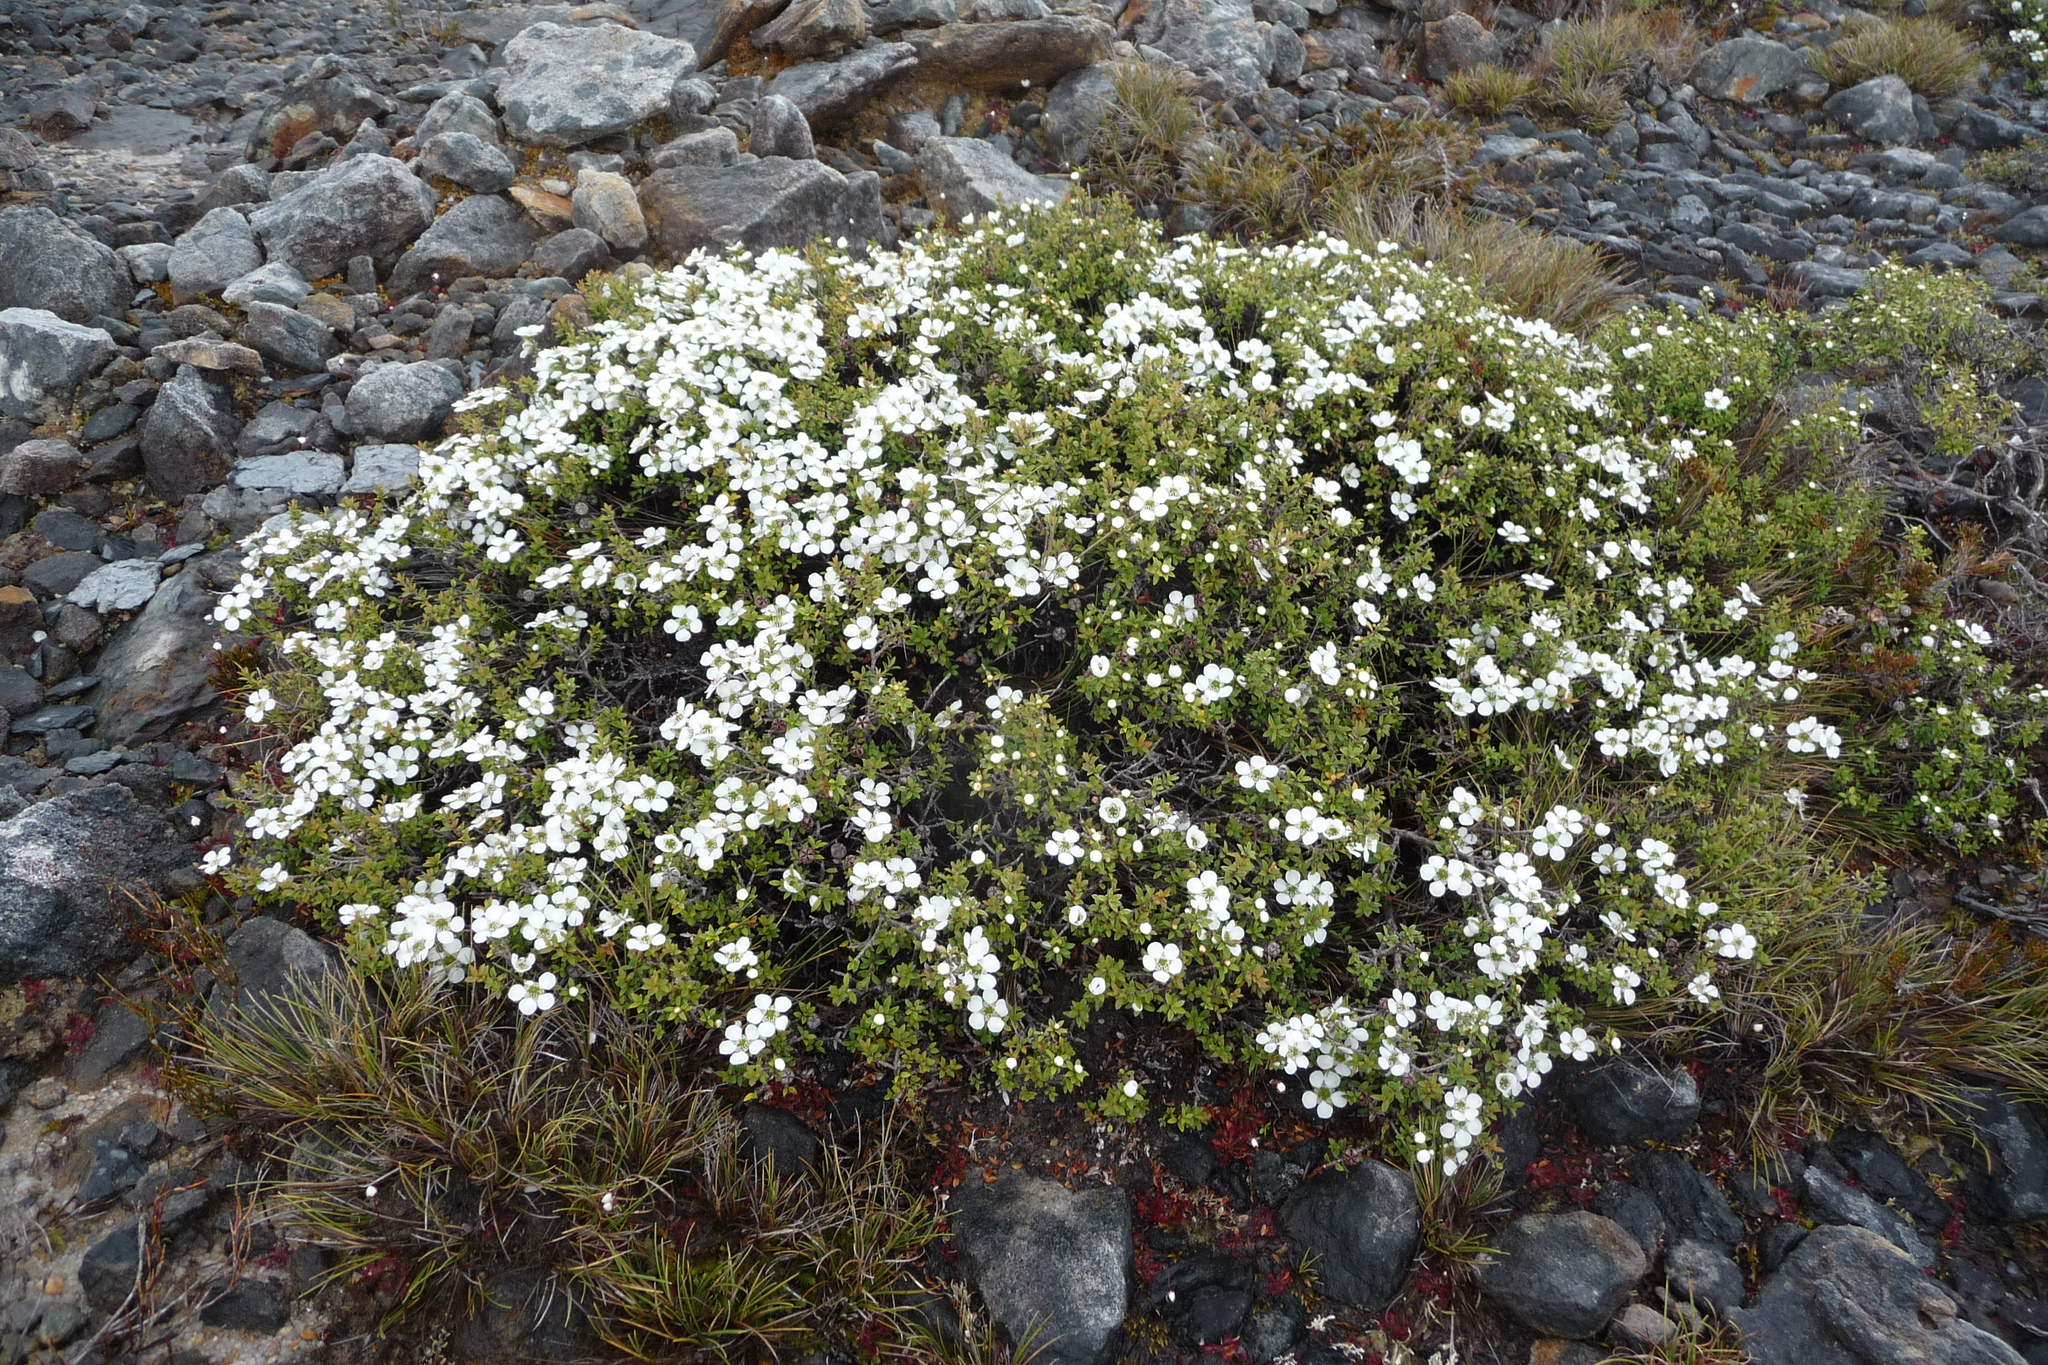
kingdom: Plantae
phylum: Tracheophyta
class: Magnoliopsida
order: Myrtales
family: Myrtaceae
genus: Leptospermum
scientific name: Leptospermum scoparium
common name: Broom tea-tree
